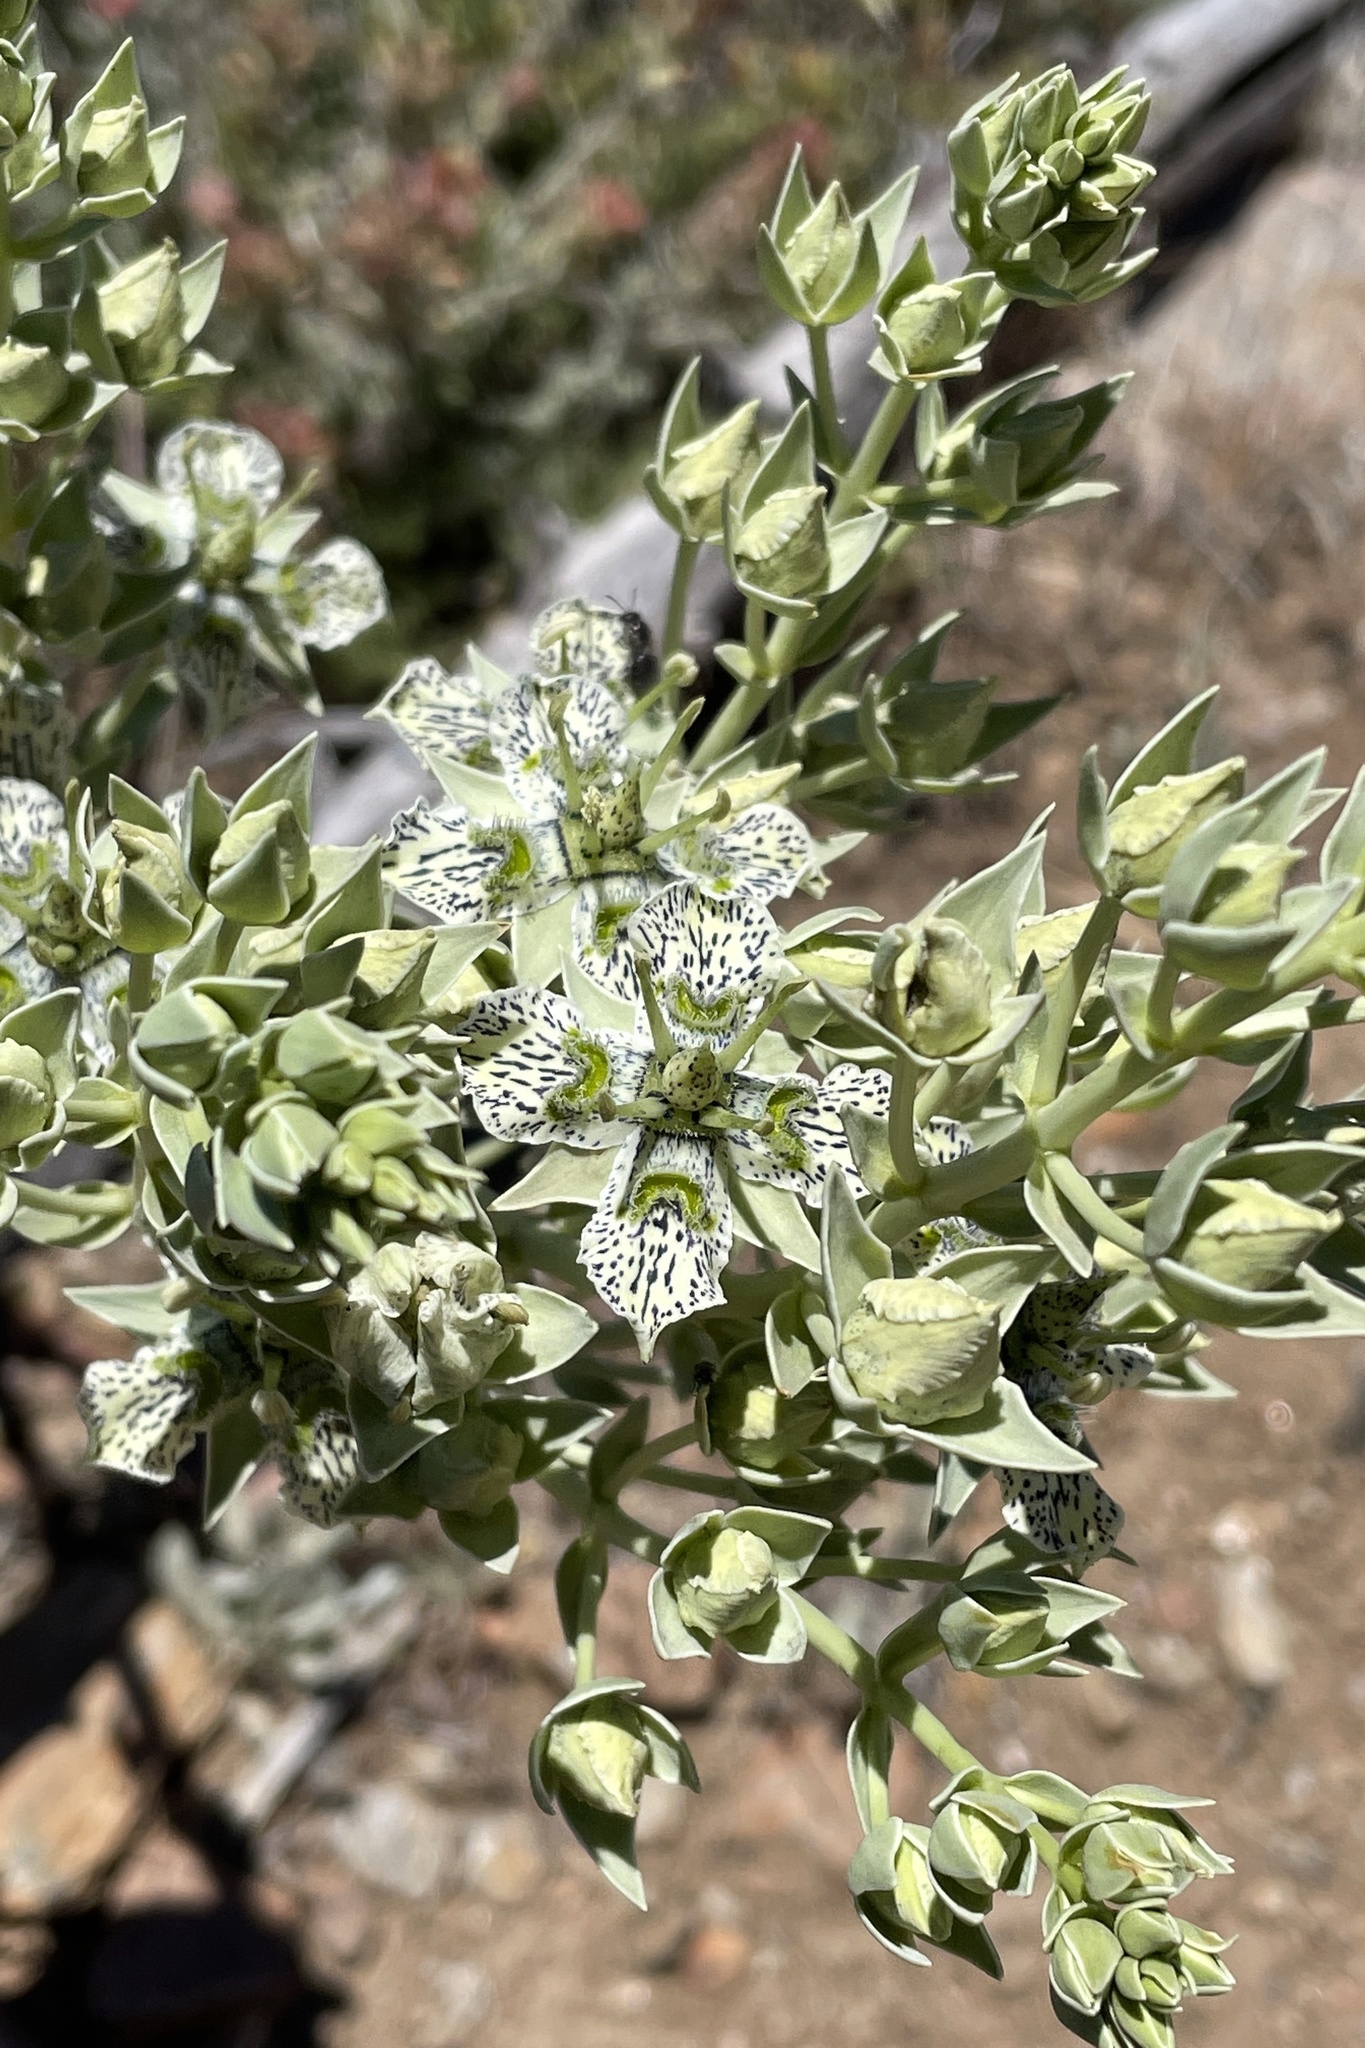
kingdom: Plantae
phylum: Tracheophyta
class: Magnoliopsida
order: Gentianales
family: Gentianaceae
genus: Frasera
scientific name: Frasera parryi
